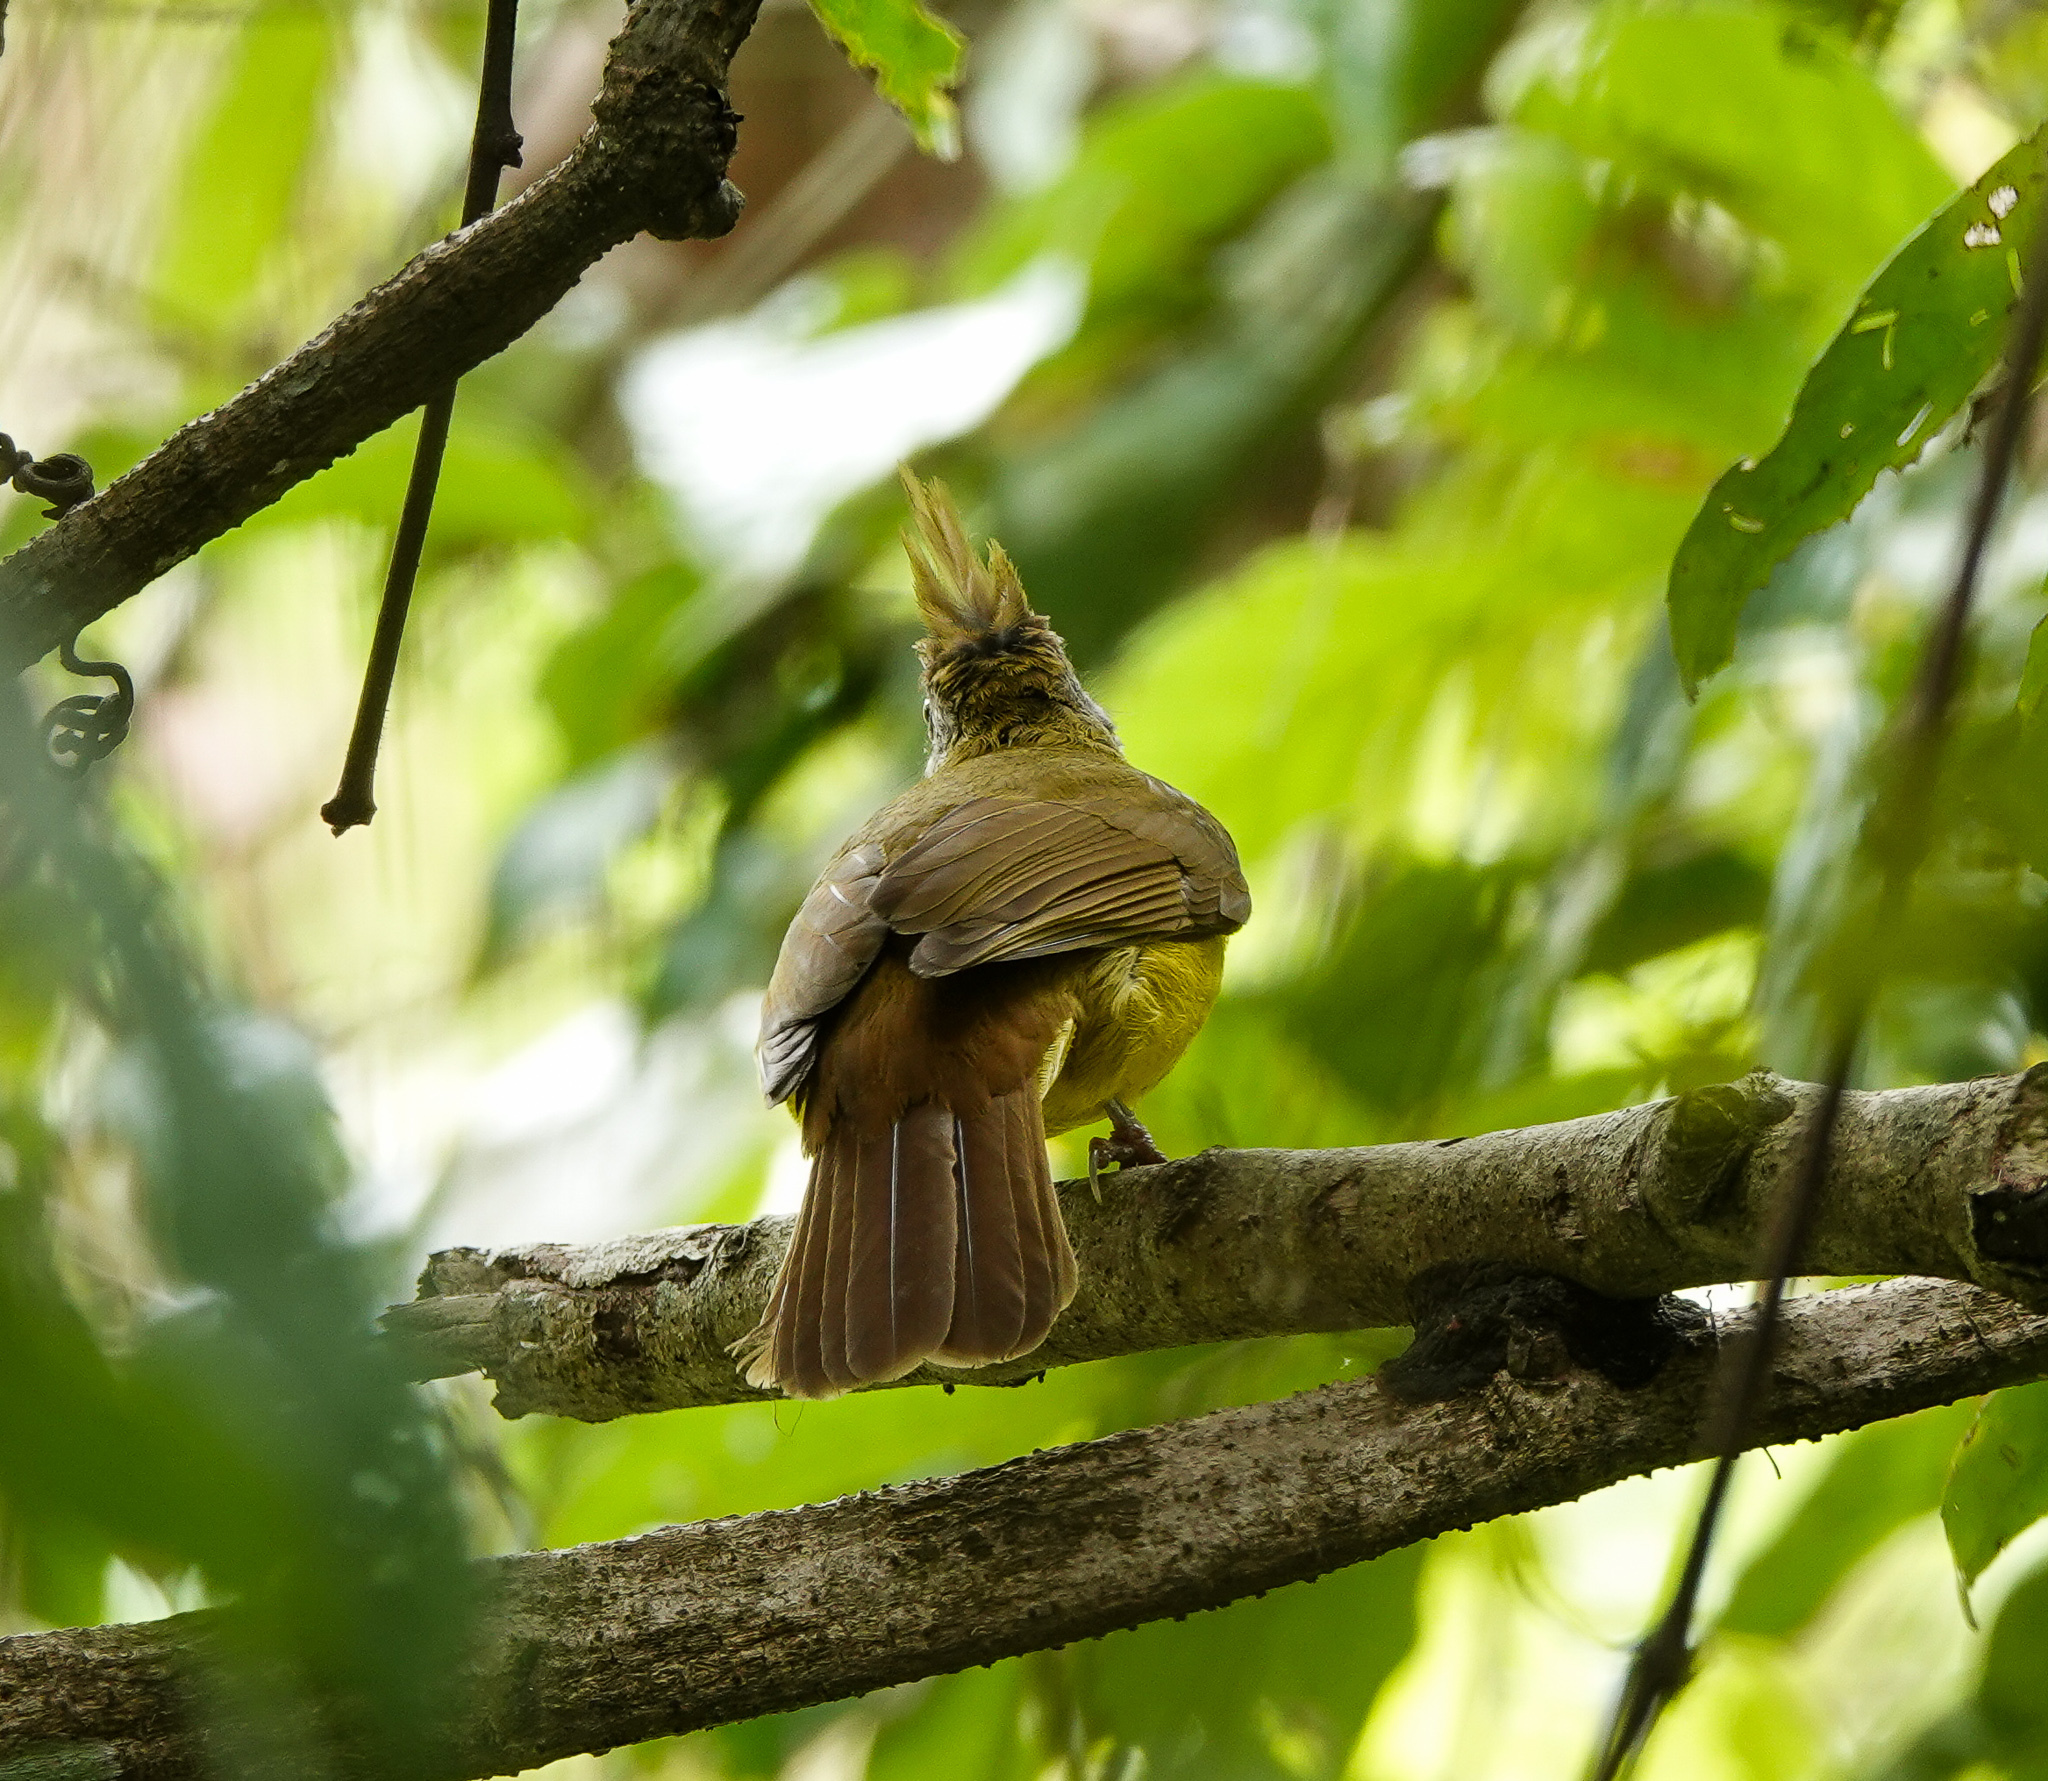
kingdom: Animalia
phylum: Chordata
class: Aves
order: Passeriformes
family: Pycnonotidae
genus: Alophoixus
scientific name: Alophoixus flaveolus
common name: White-throated bulbul
